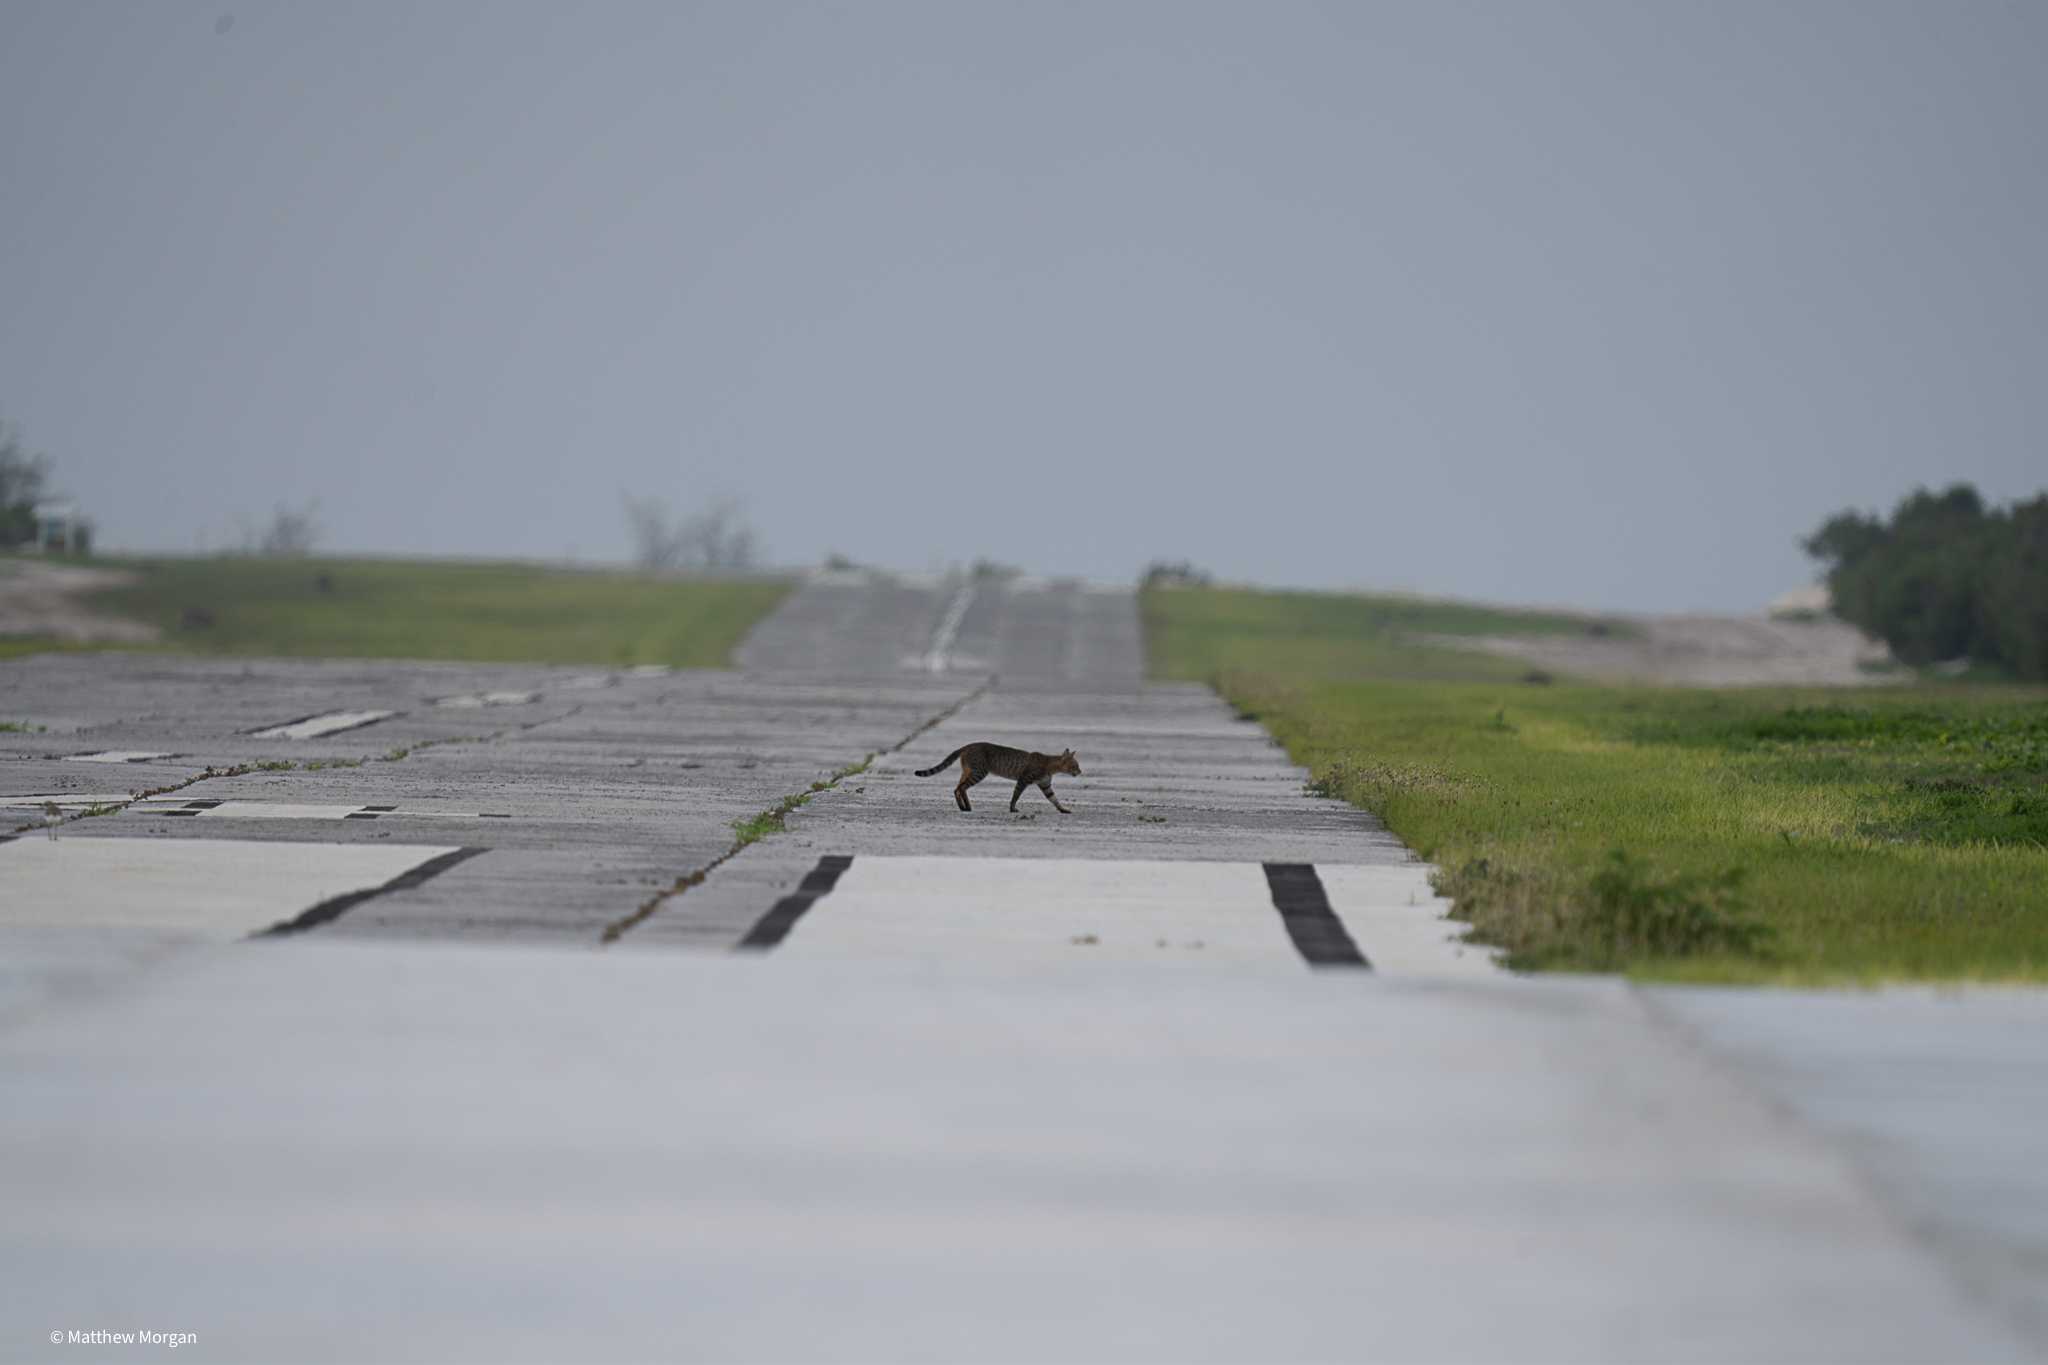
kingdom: Animalia
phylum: Chordata
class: Mammalia
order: Carnivora
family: Felidae
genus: Felis
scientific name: Felis catus
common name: Domestic cat
